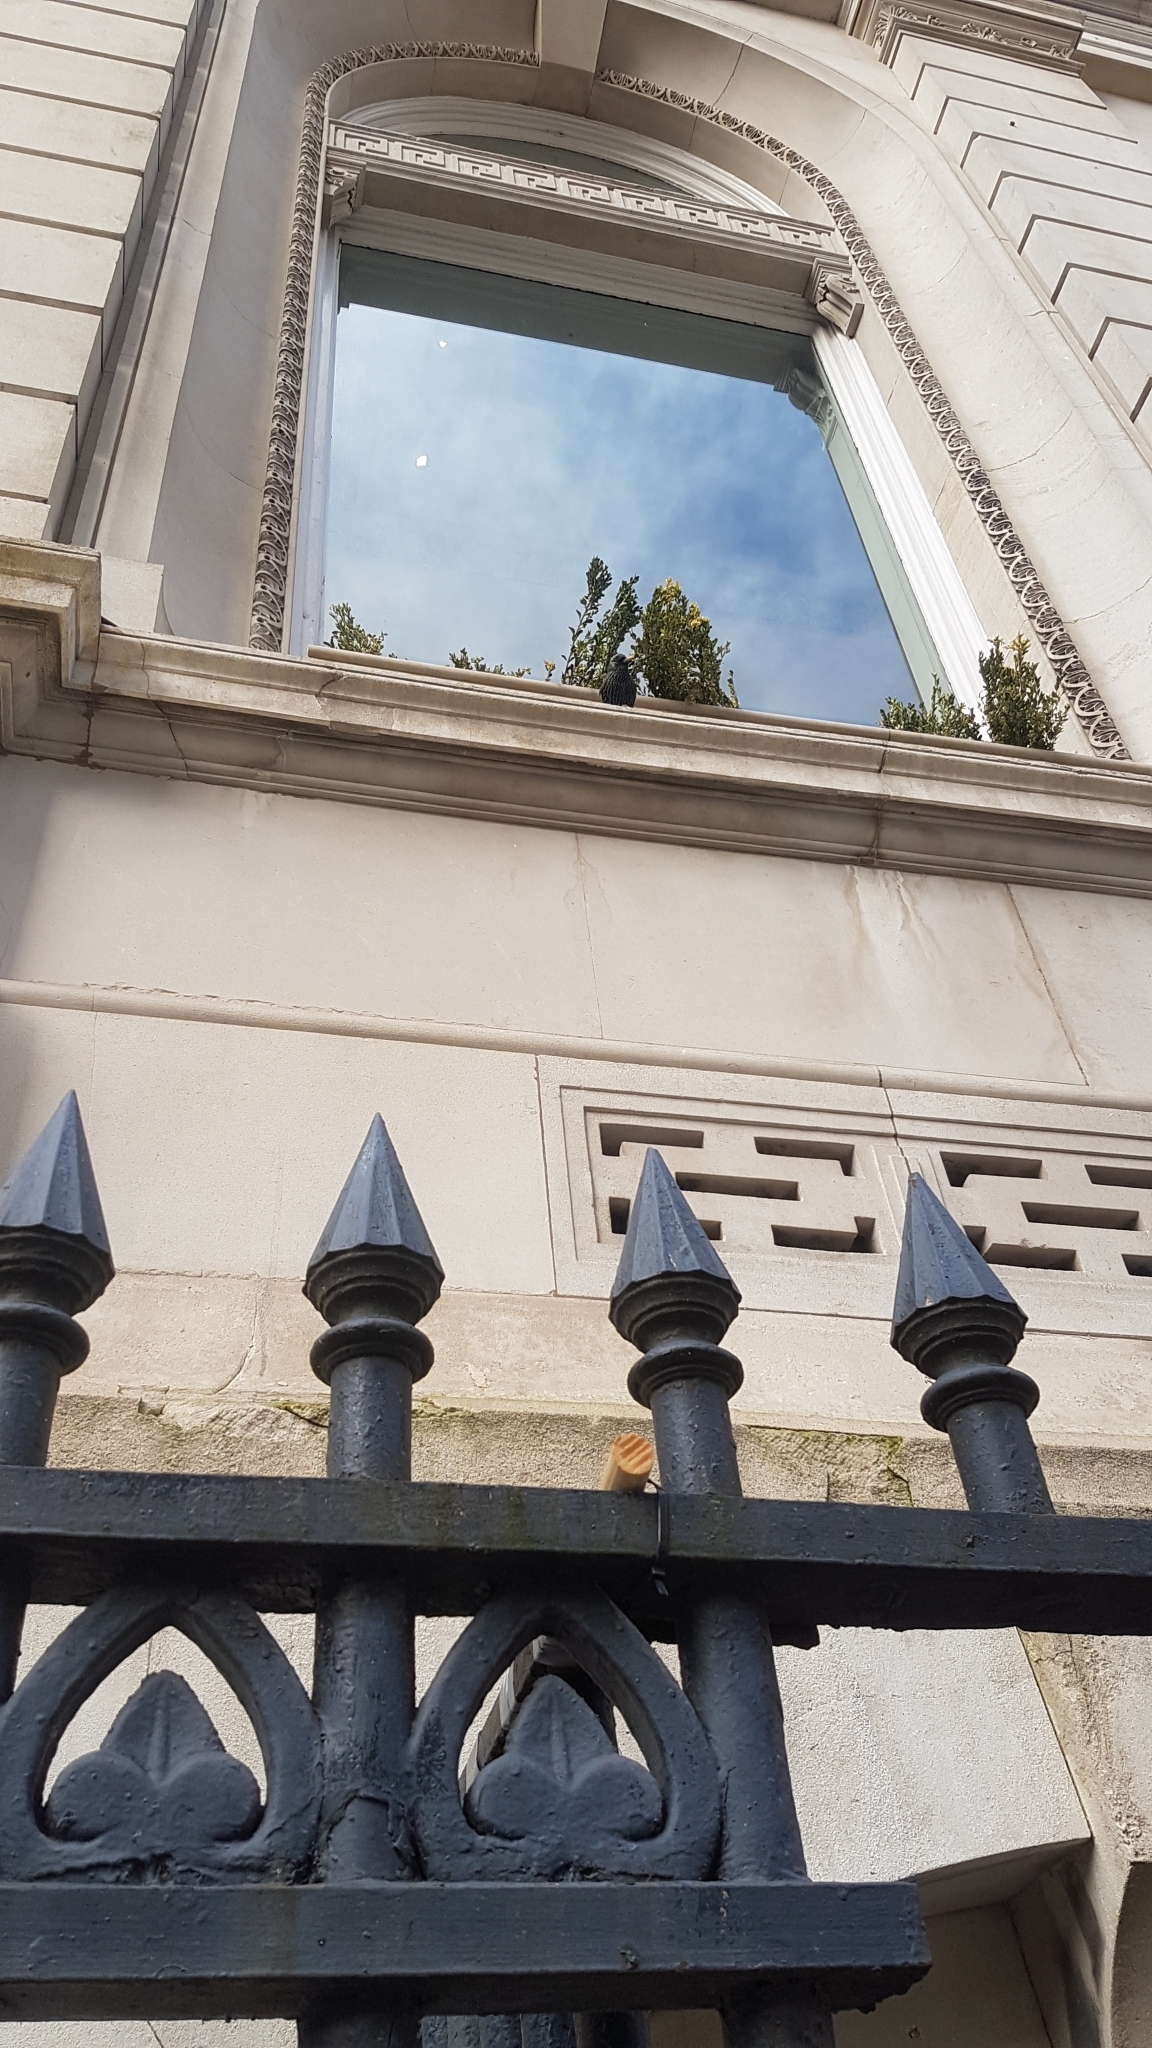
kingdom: Animalia
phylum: Chordata
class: Aves
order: Passeriformes
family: Sturnidae
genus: Sturnus
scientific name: Sturnus vulgaris
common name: Common starling
